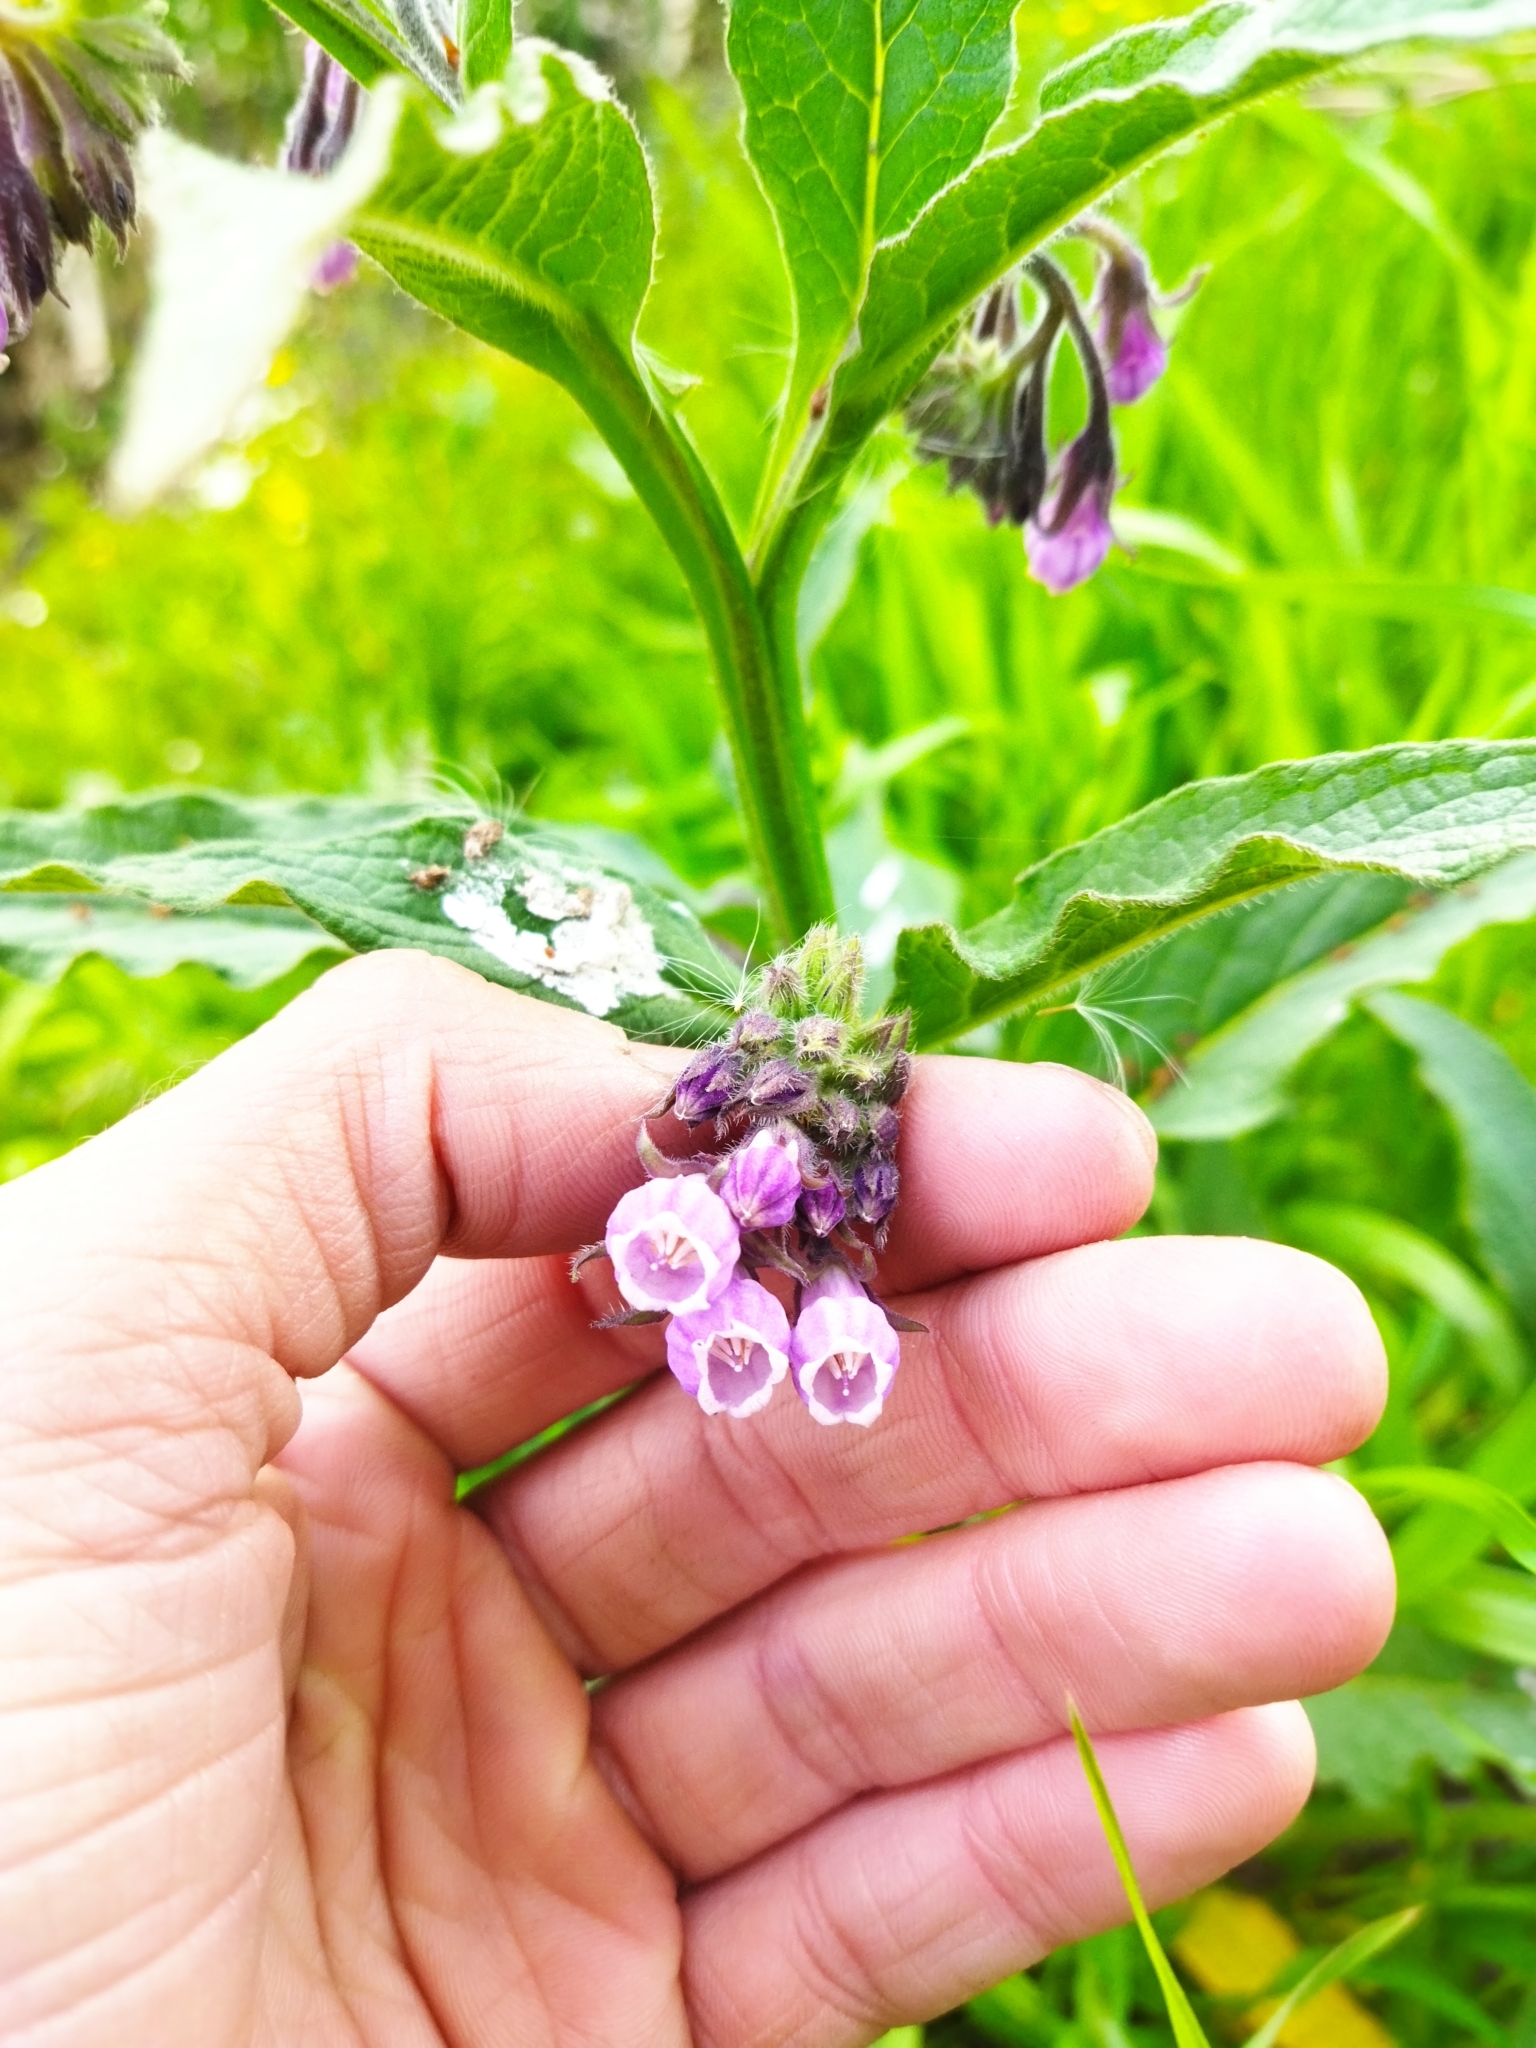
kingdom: Plantae
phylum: Tracheophyta
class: Magnoliopsida
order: Boraginales
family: Boraginaceae
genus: Symphytum
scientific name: Symphytum officinale
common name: Common comfrey
